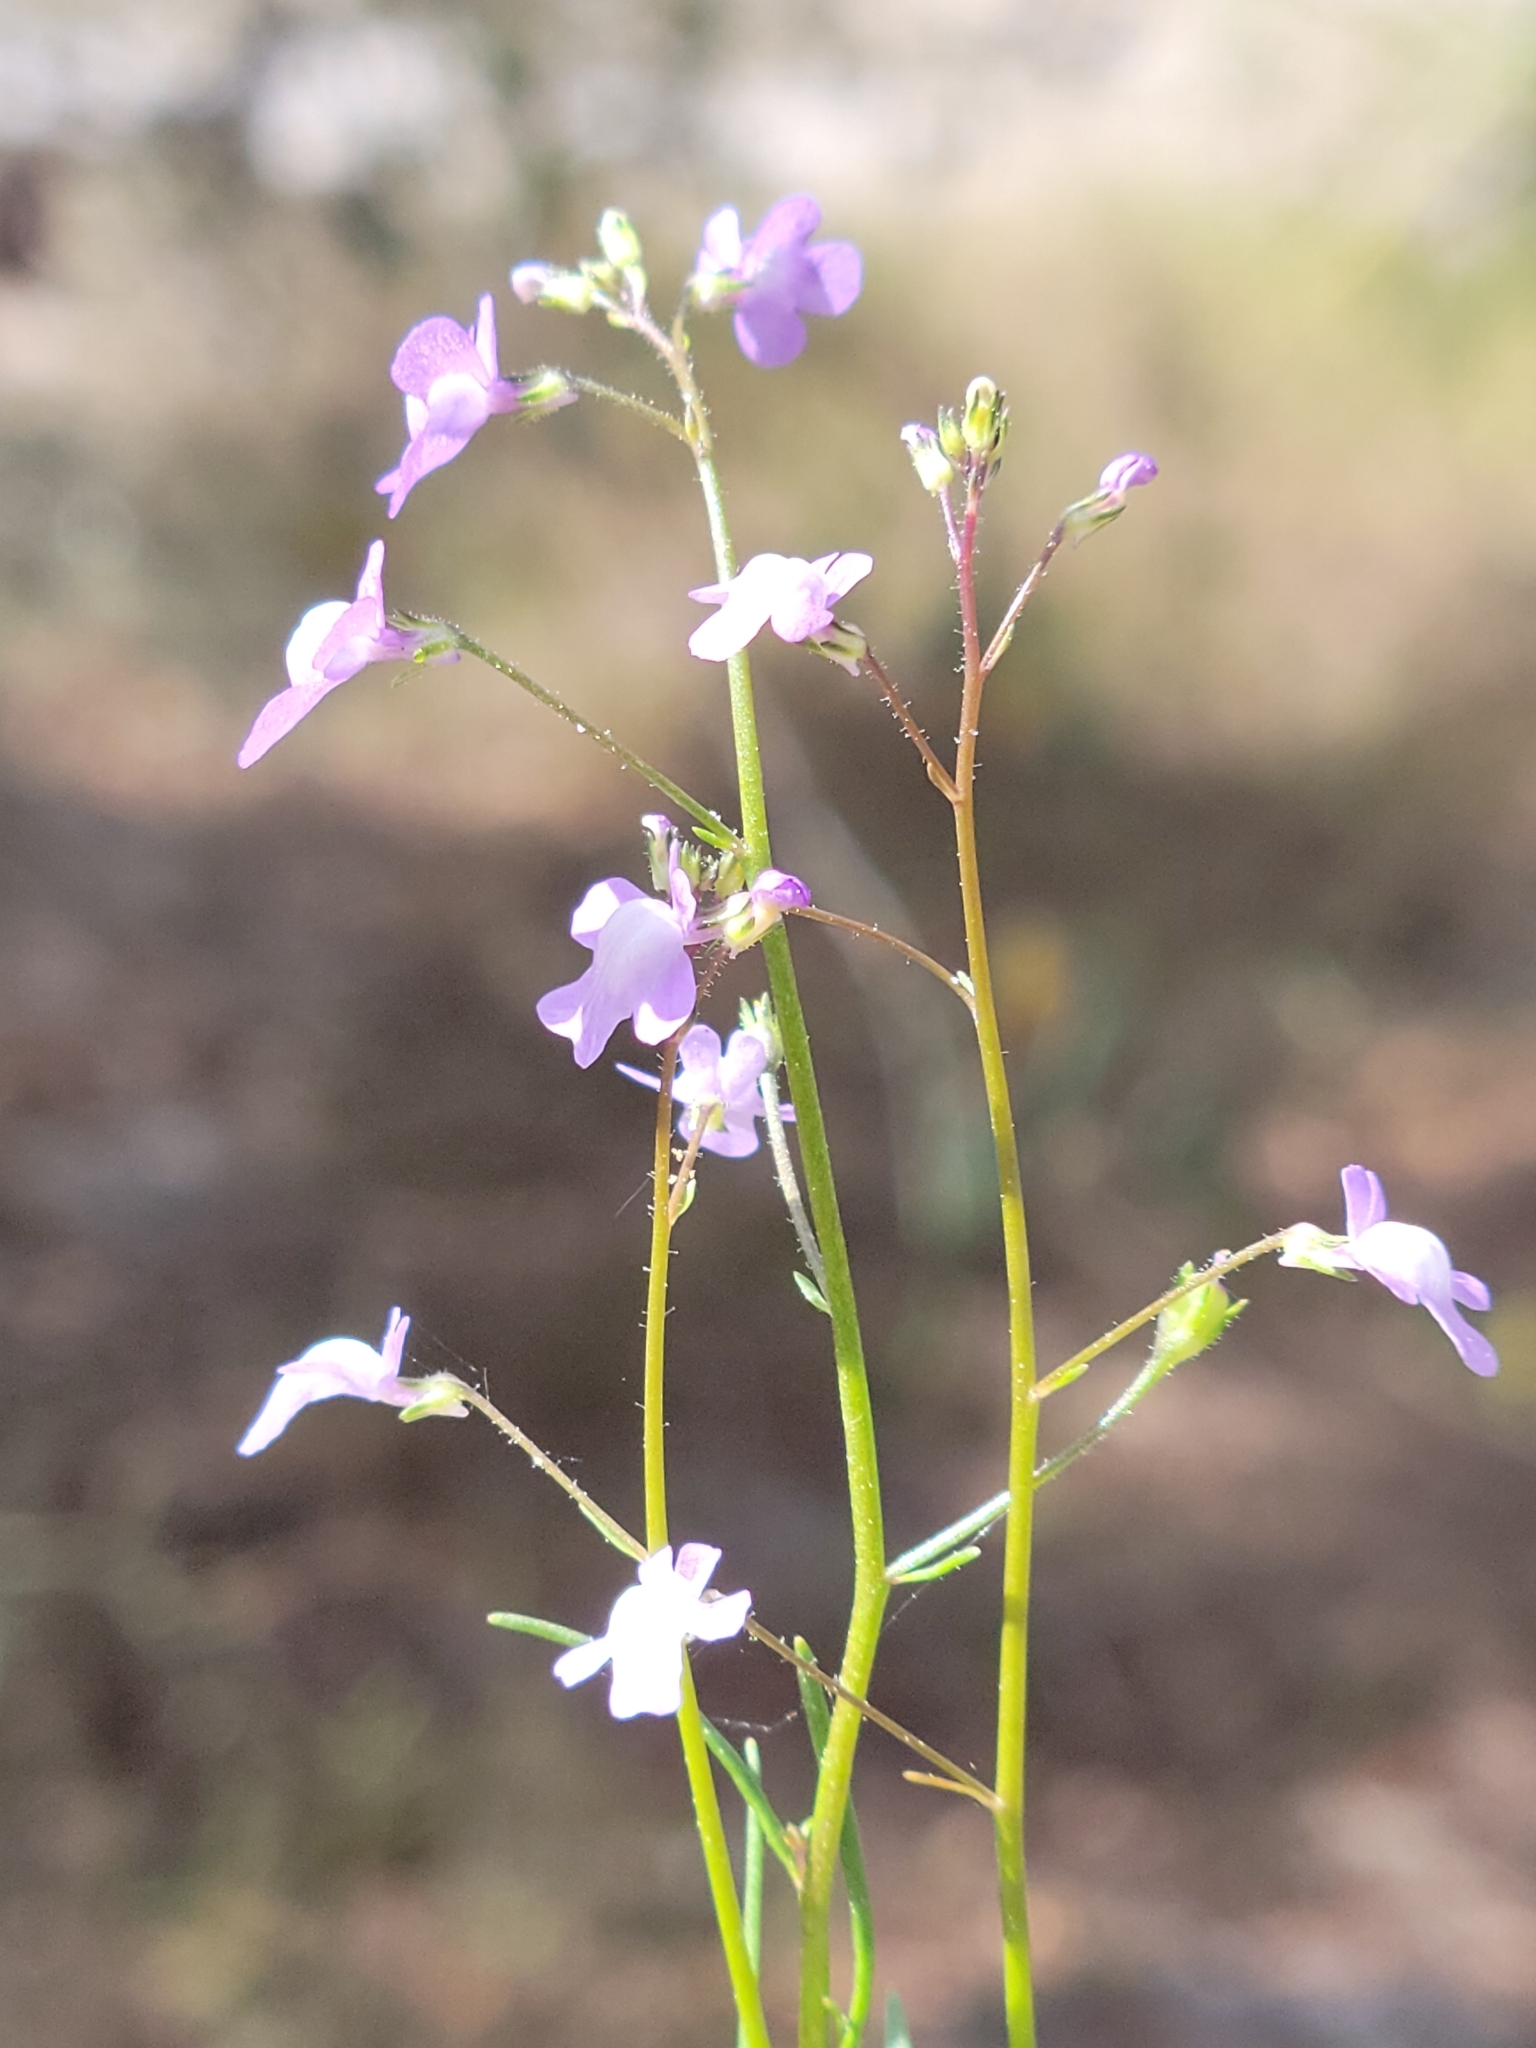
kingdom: Plantae
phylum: Tracheophyta
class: Magnoliopsida
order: Lamiales
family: Plantaginaceae
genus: Nuttallanthus
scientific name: Nuttallanthus floridanus
